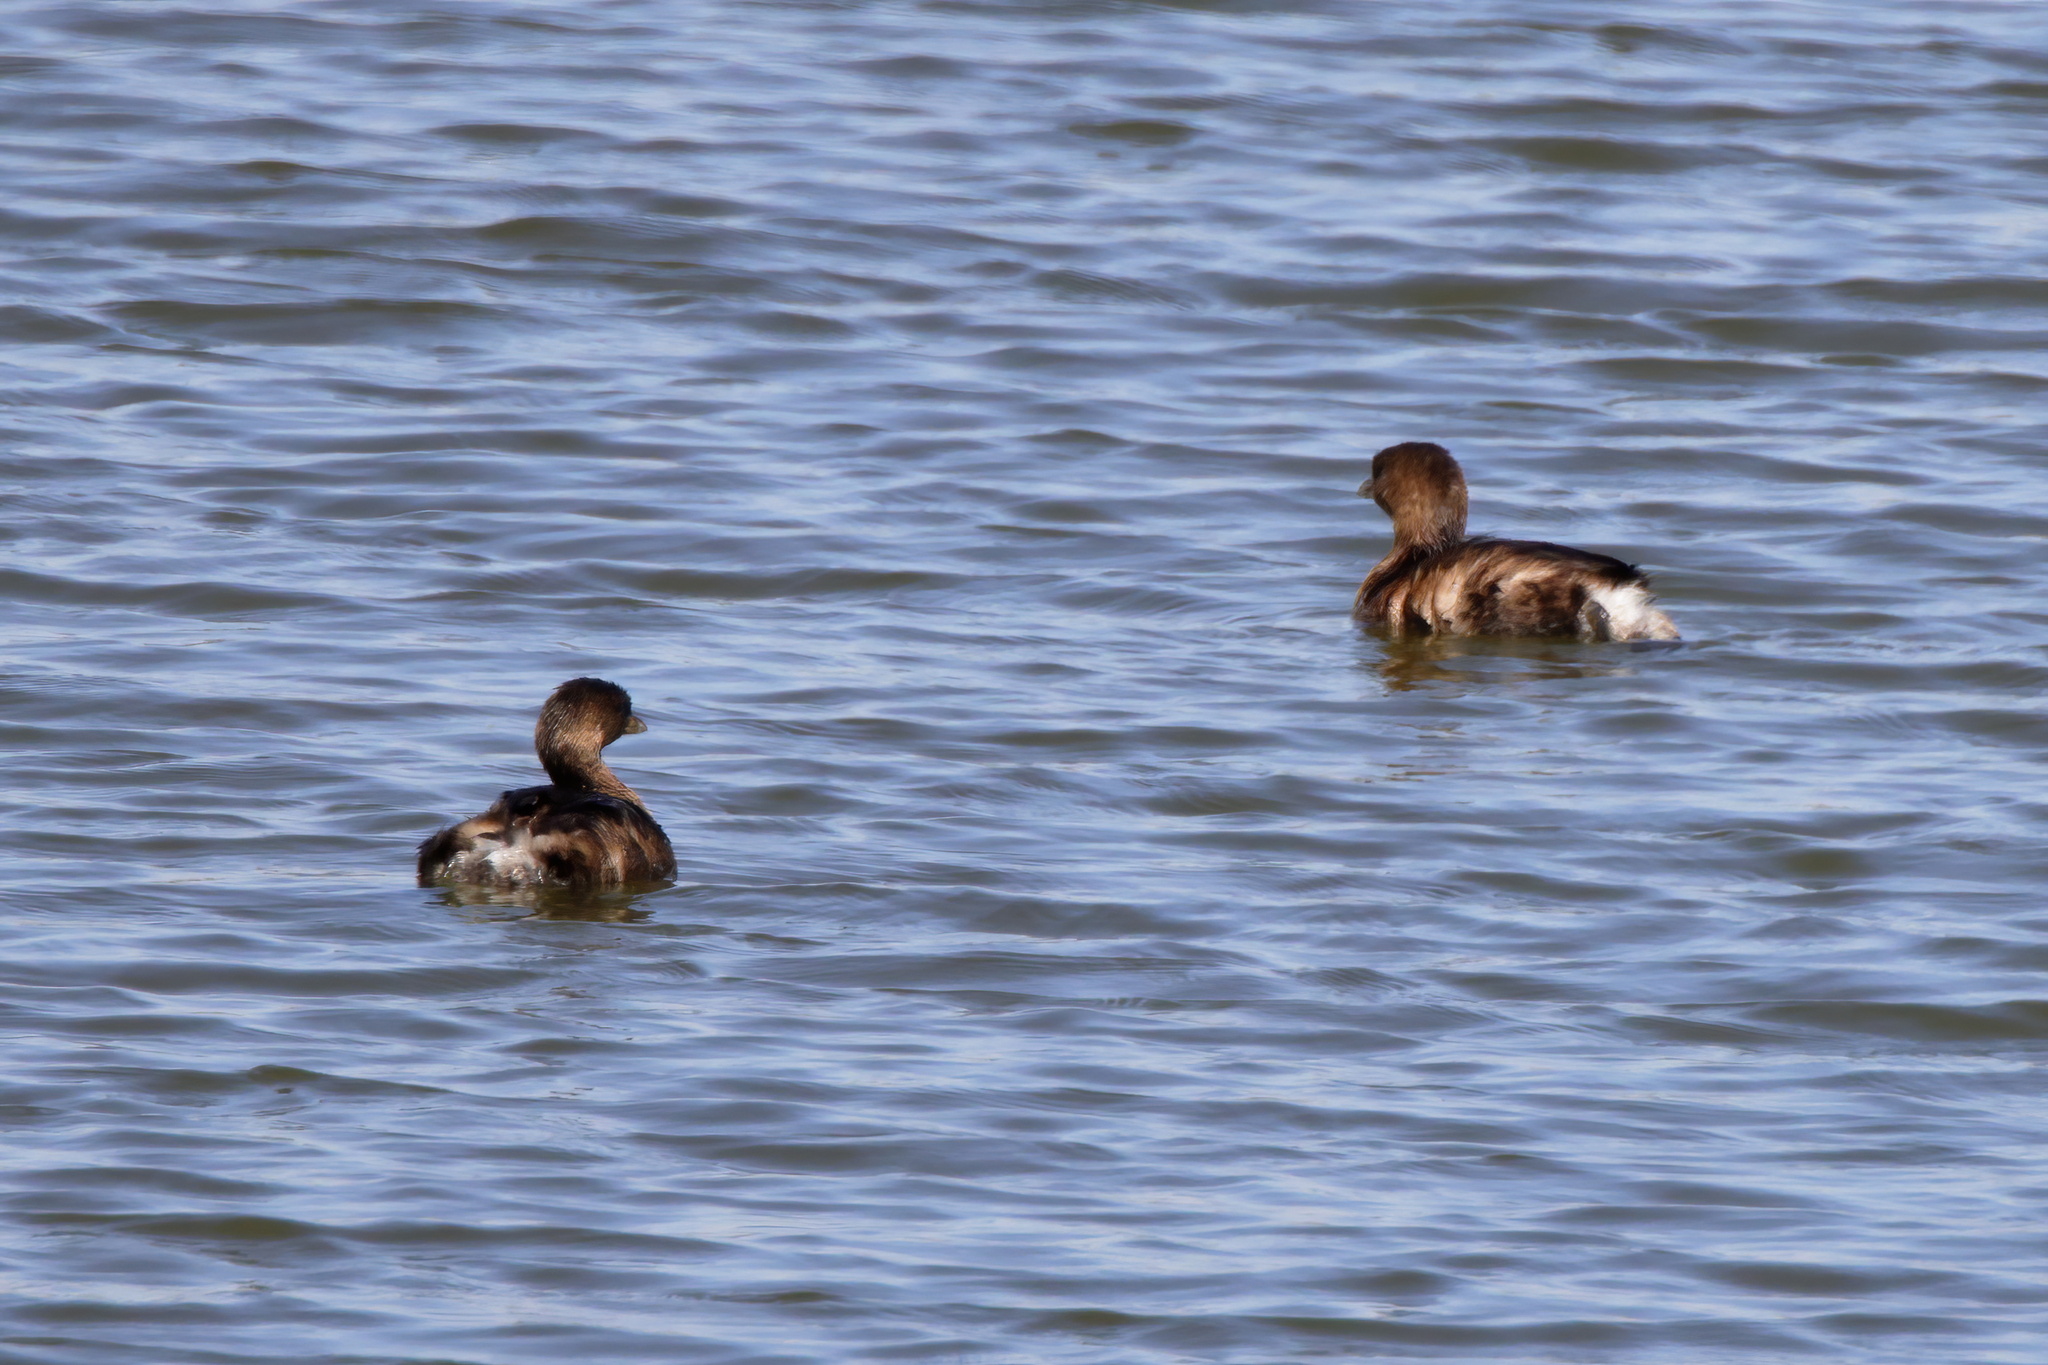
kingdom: Animalia
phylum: Chordata
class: Aves
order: Podicipediformes
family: Podicipedidae
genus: Podilymbus
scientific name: Podilymbus podiceps
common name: Pied-billed grebe
